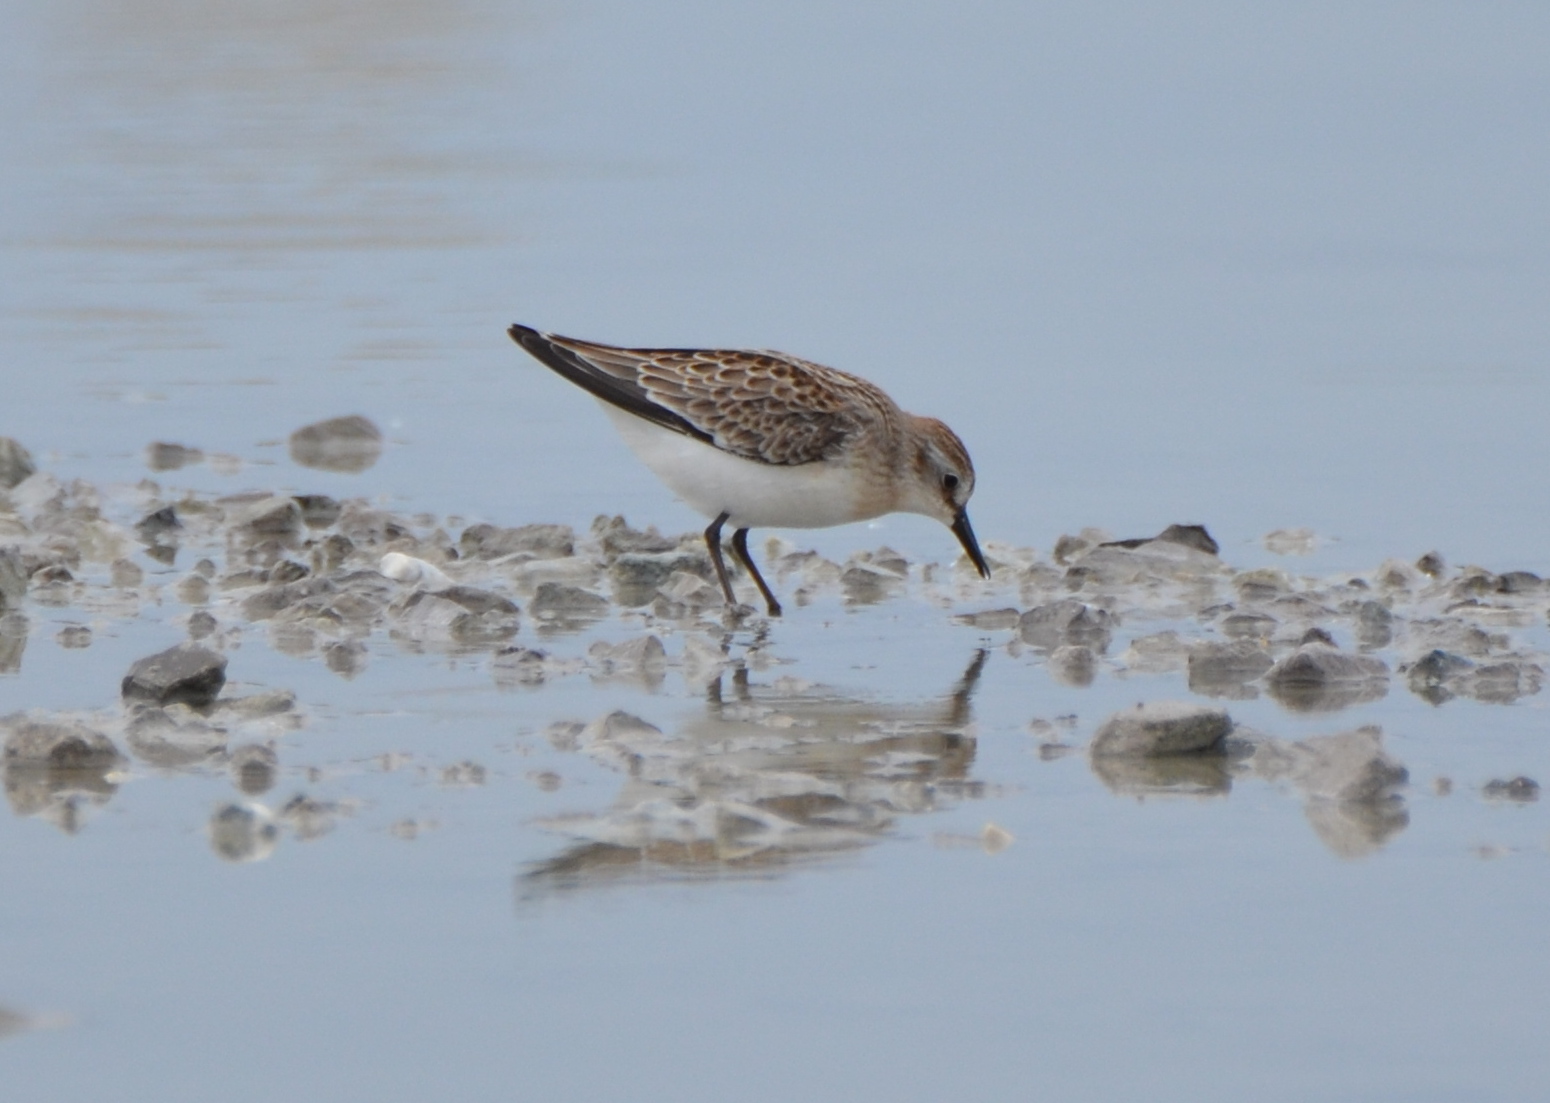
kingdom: Animalia
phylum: Chordata
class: Aves
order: Charadriiformes
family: Scolopacidae
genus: Calidris
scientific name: Calidris pusilla
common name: Semipalmated sandpiper
